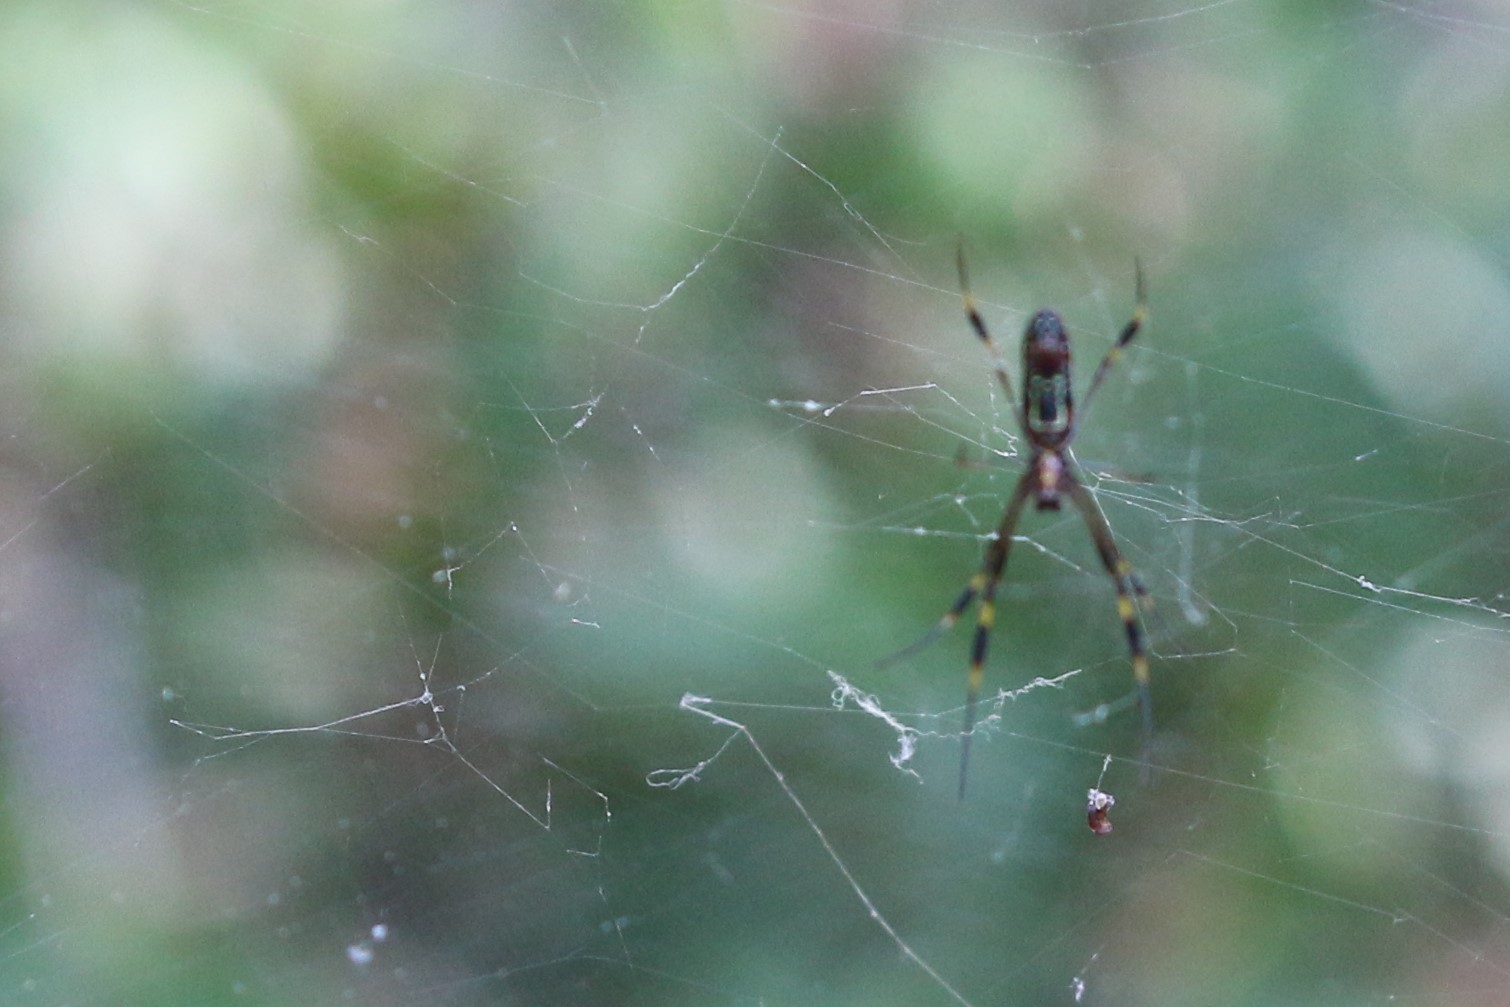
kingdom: Animalia
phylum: Arthropoda
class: Arachnida
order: Araneae
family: Araneidae
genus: Trichonephila
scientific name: Trichonephila clavipes
